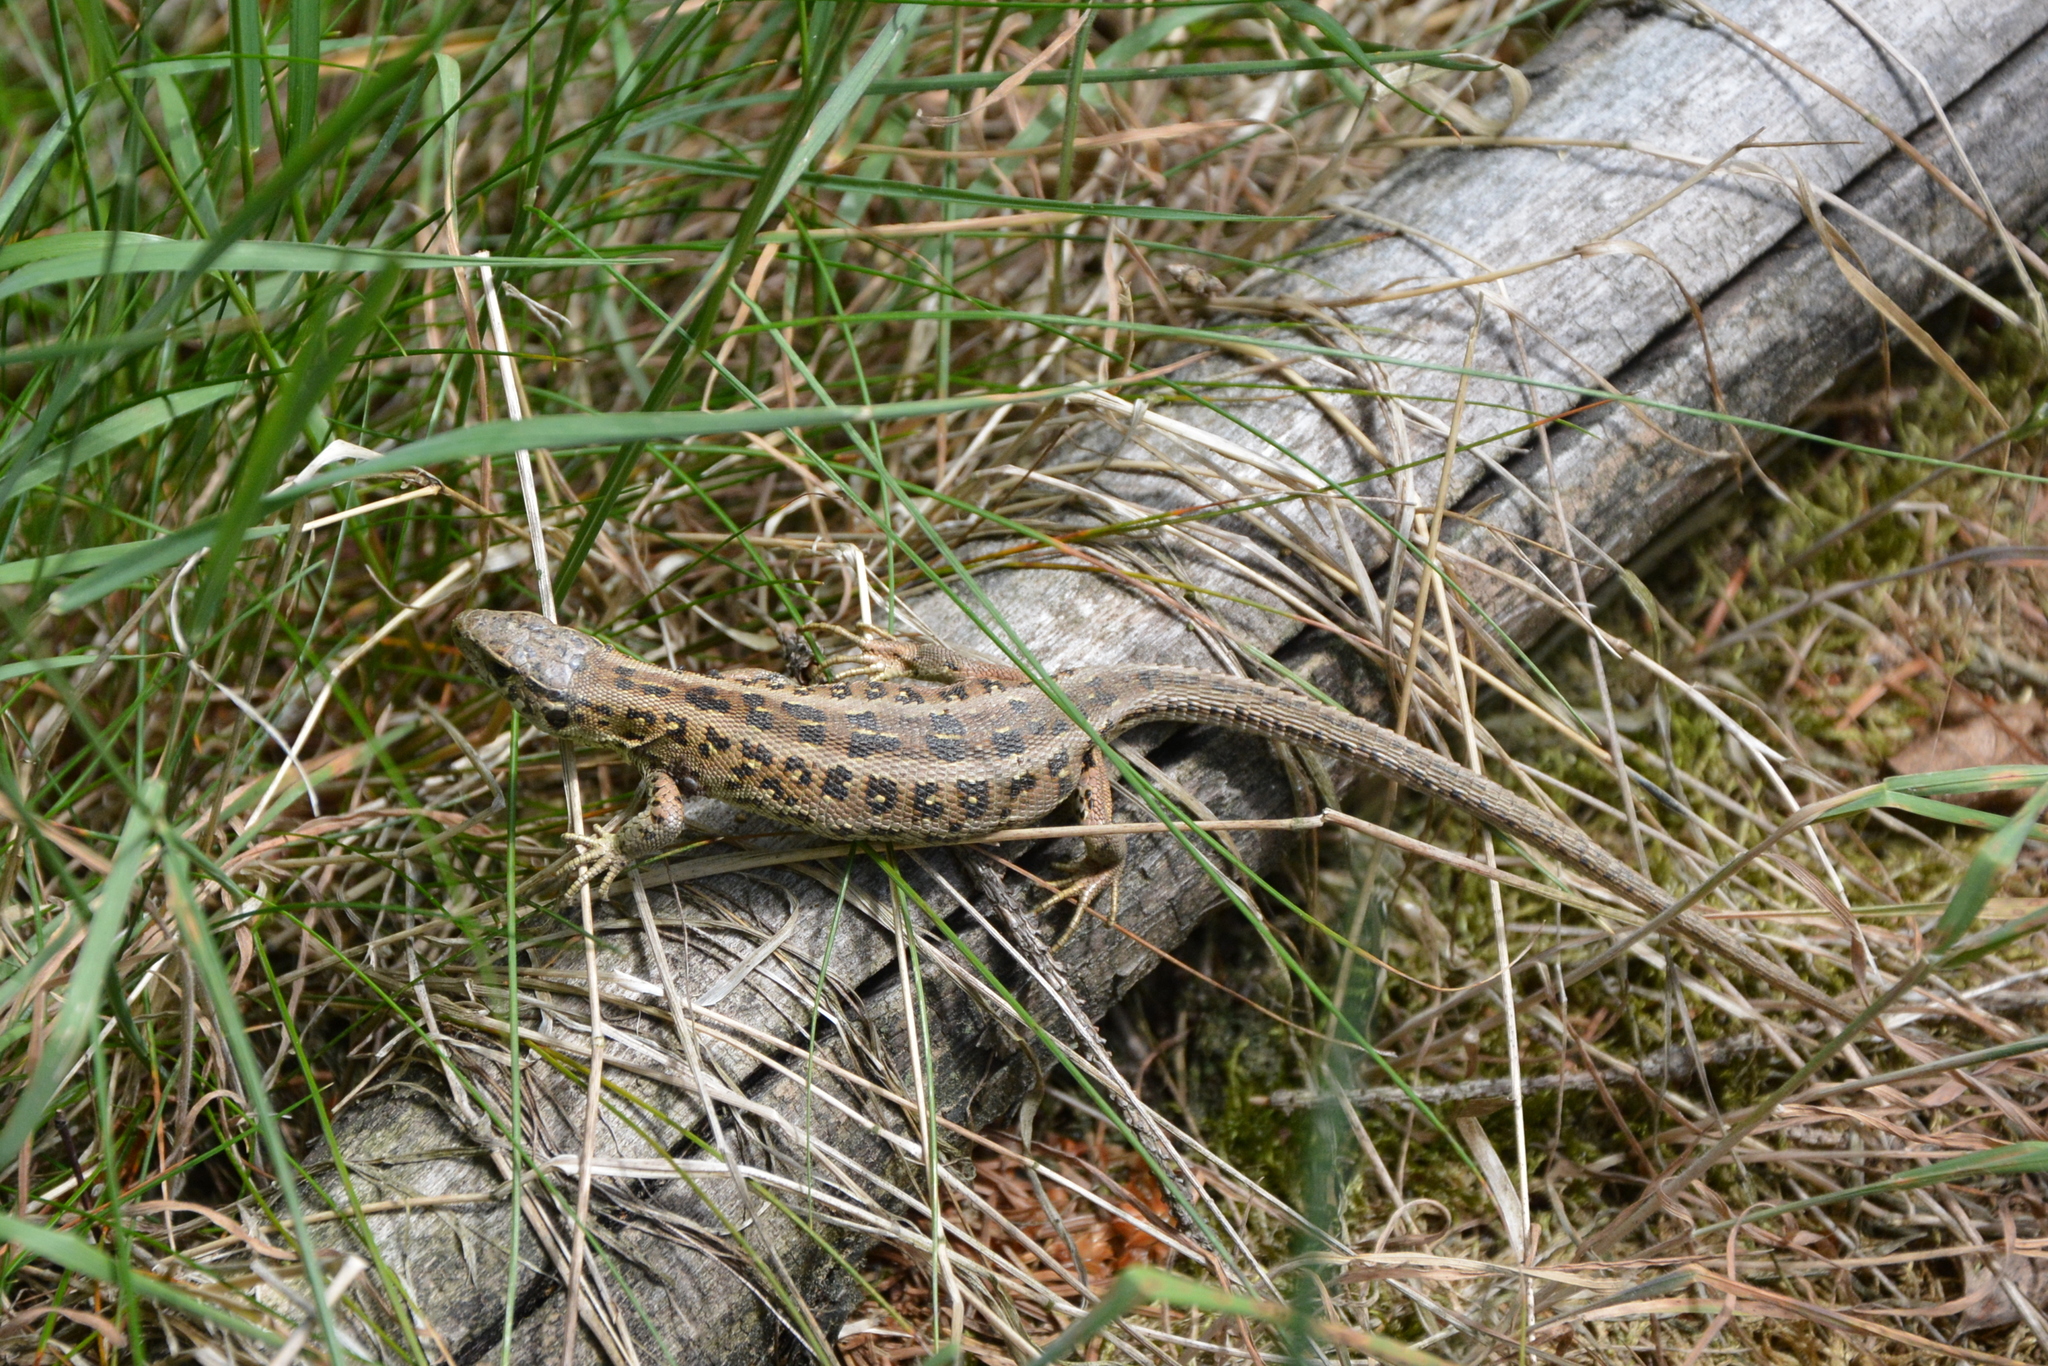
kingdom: Animalia
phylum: Chordata
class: Squamata
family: Lacertidae
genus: Lacerta
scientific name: Lacerta agilis
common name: Sand lizard
